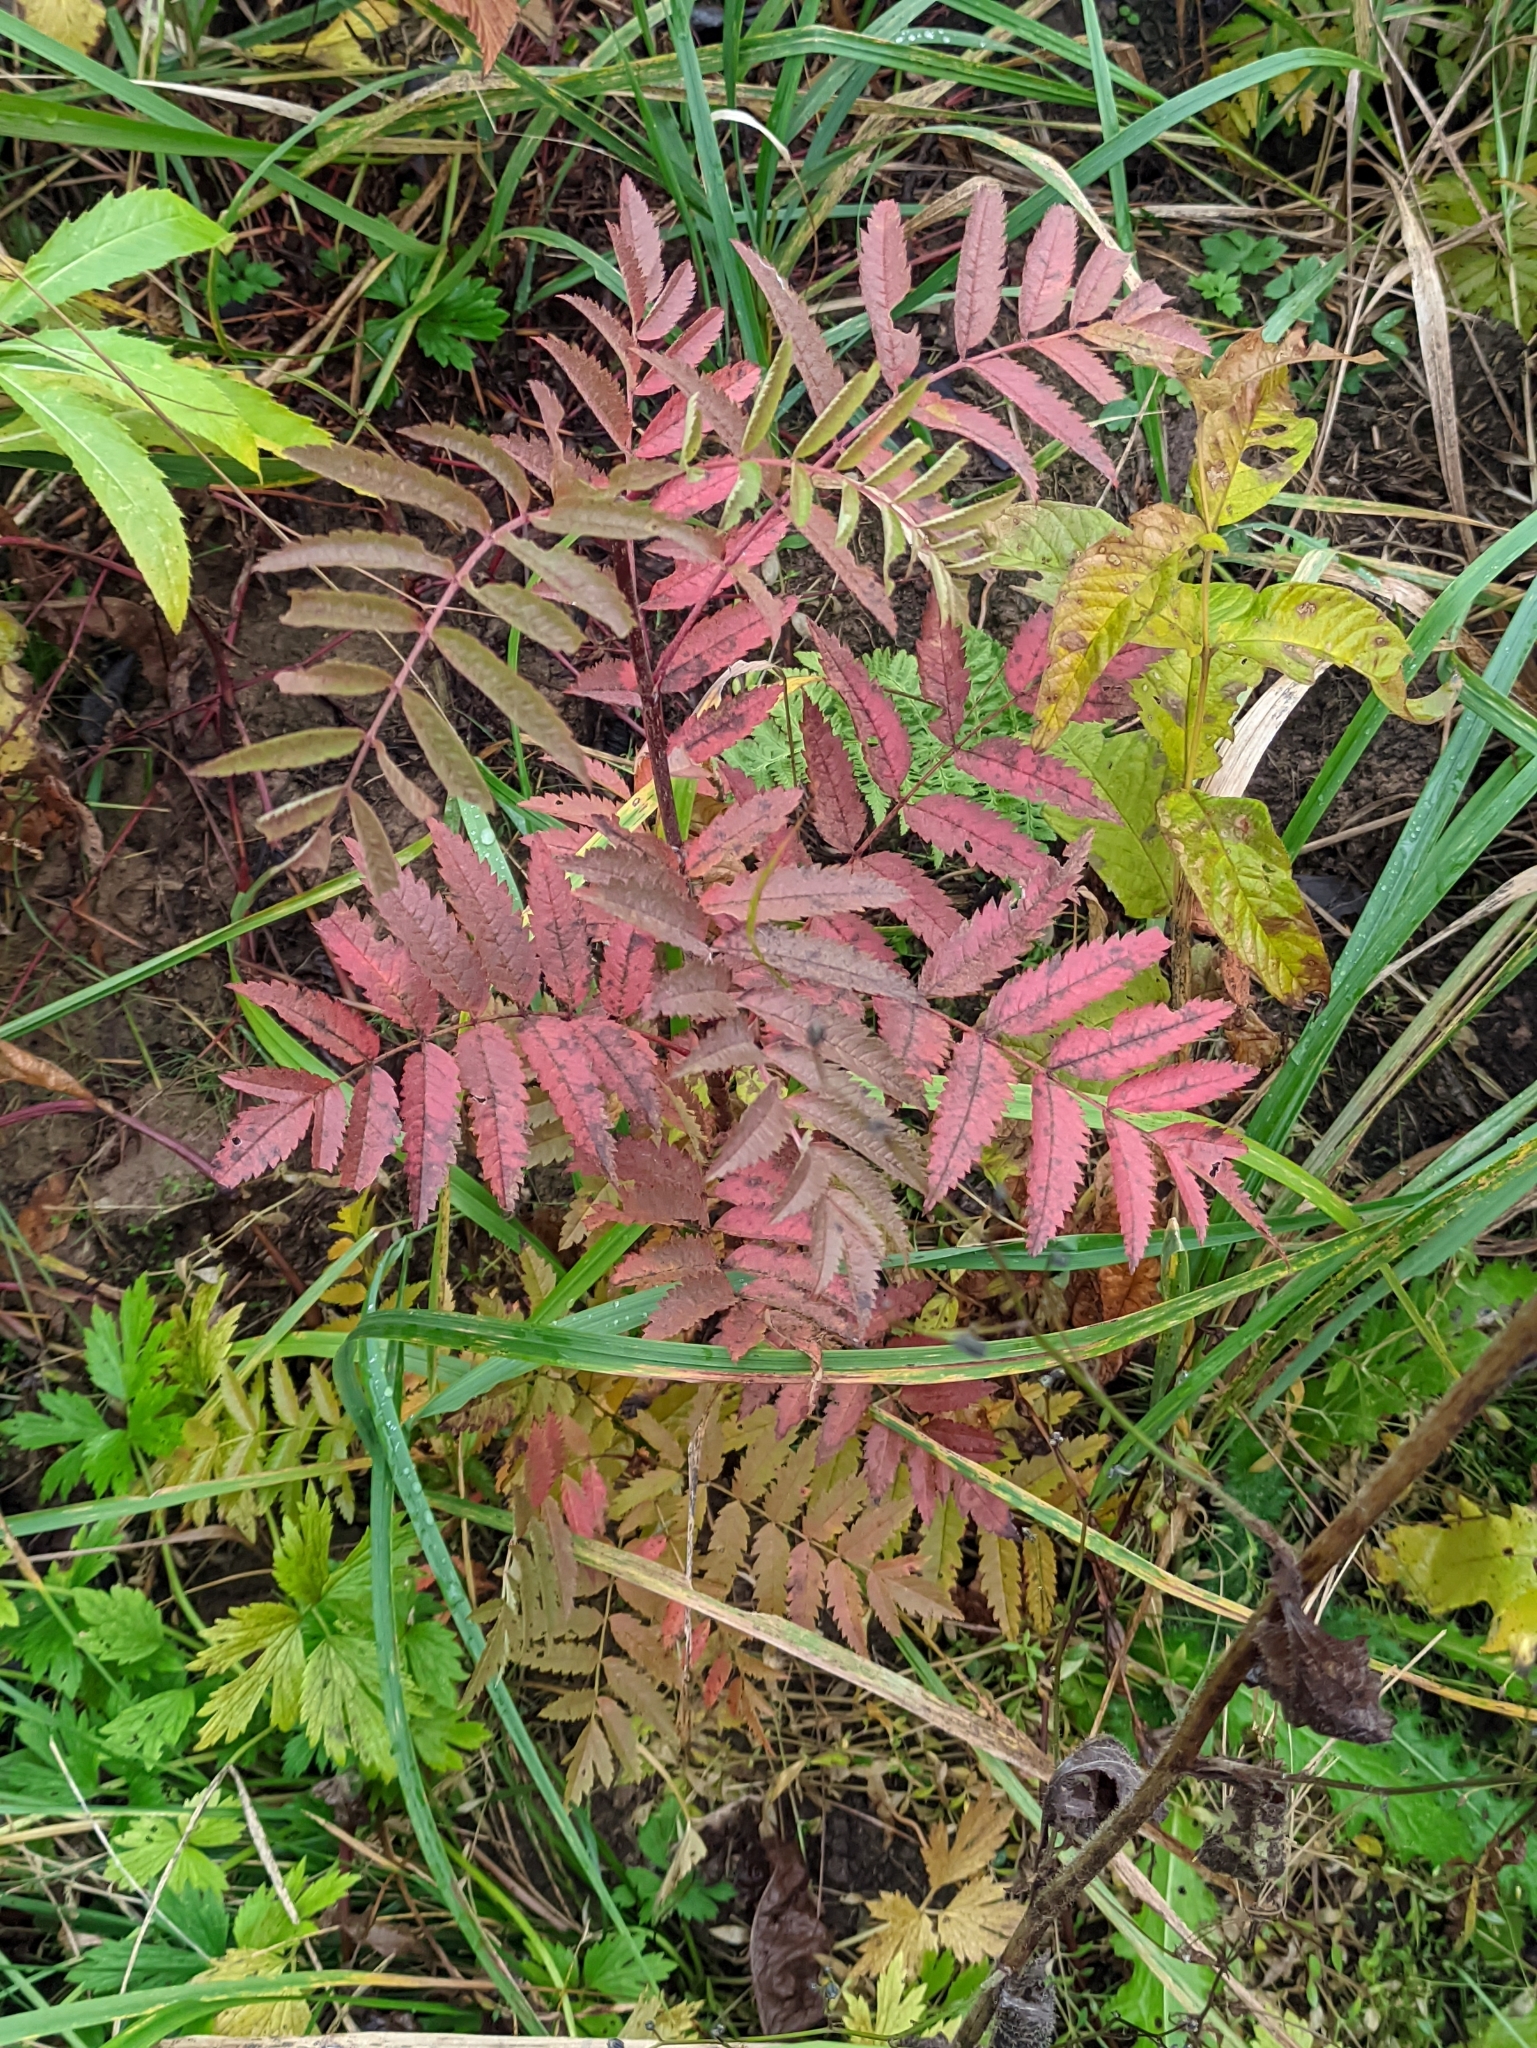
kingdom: Plantae
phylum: Tracheophyta
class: Magnoliopsida
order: Rosales
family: Rosaceae
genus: Sorbus
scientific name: Sorbus aucuparia
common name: Rowan
